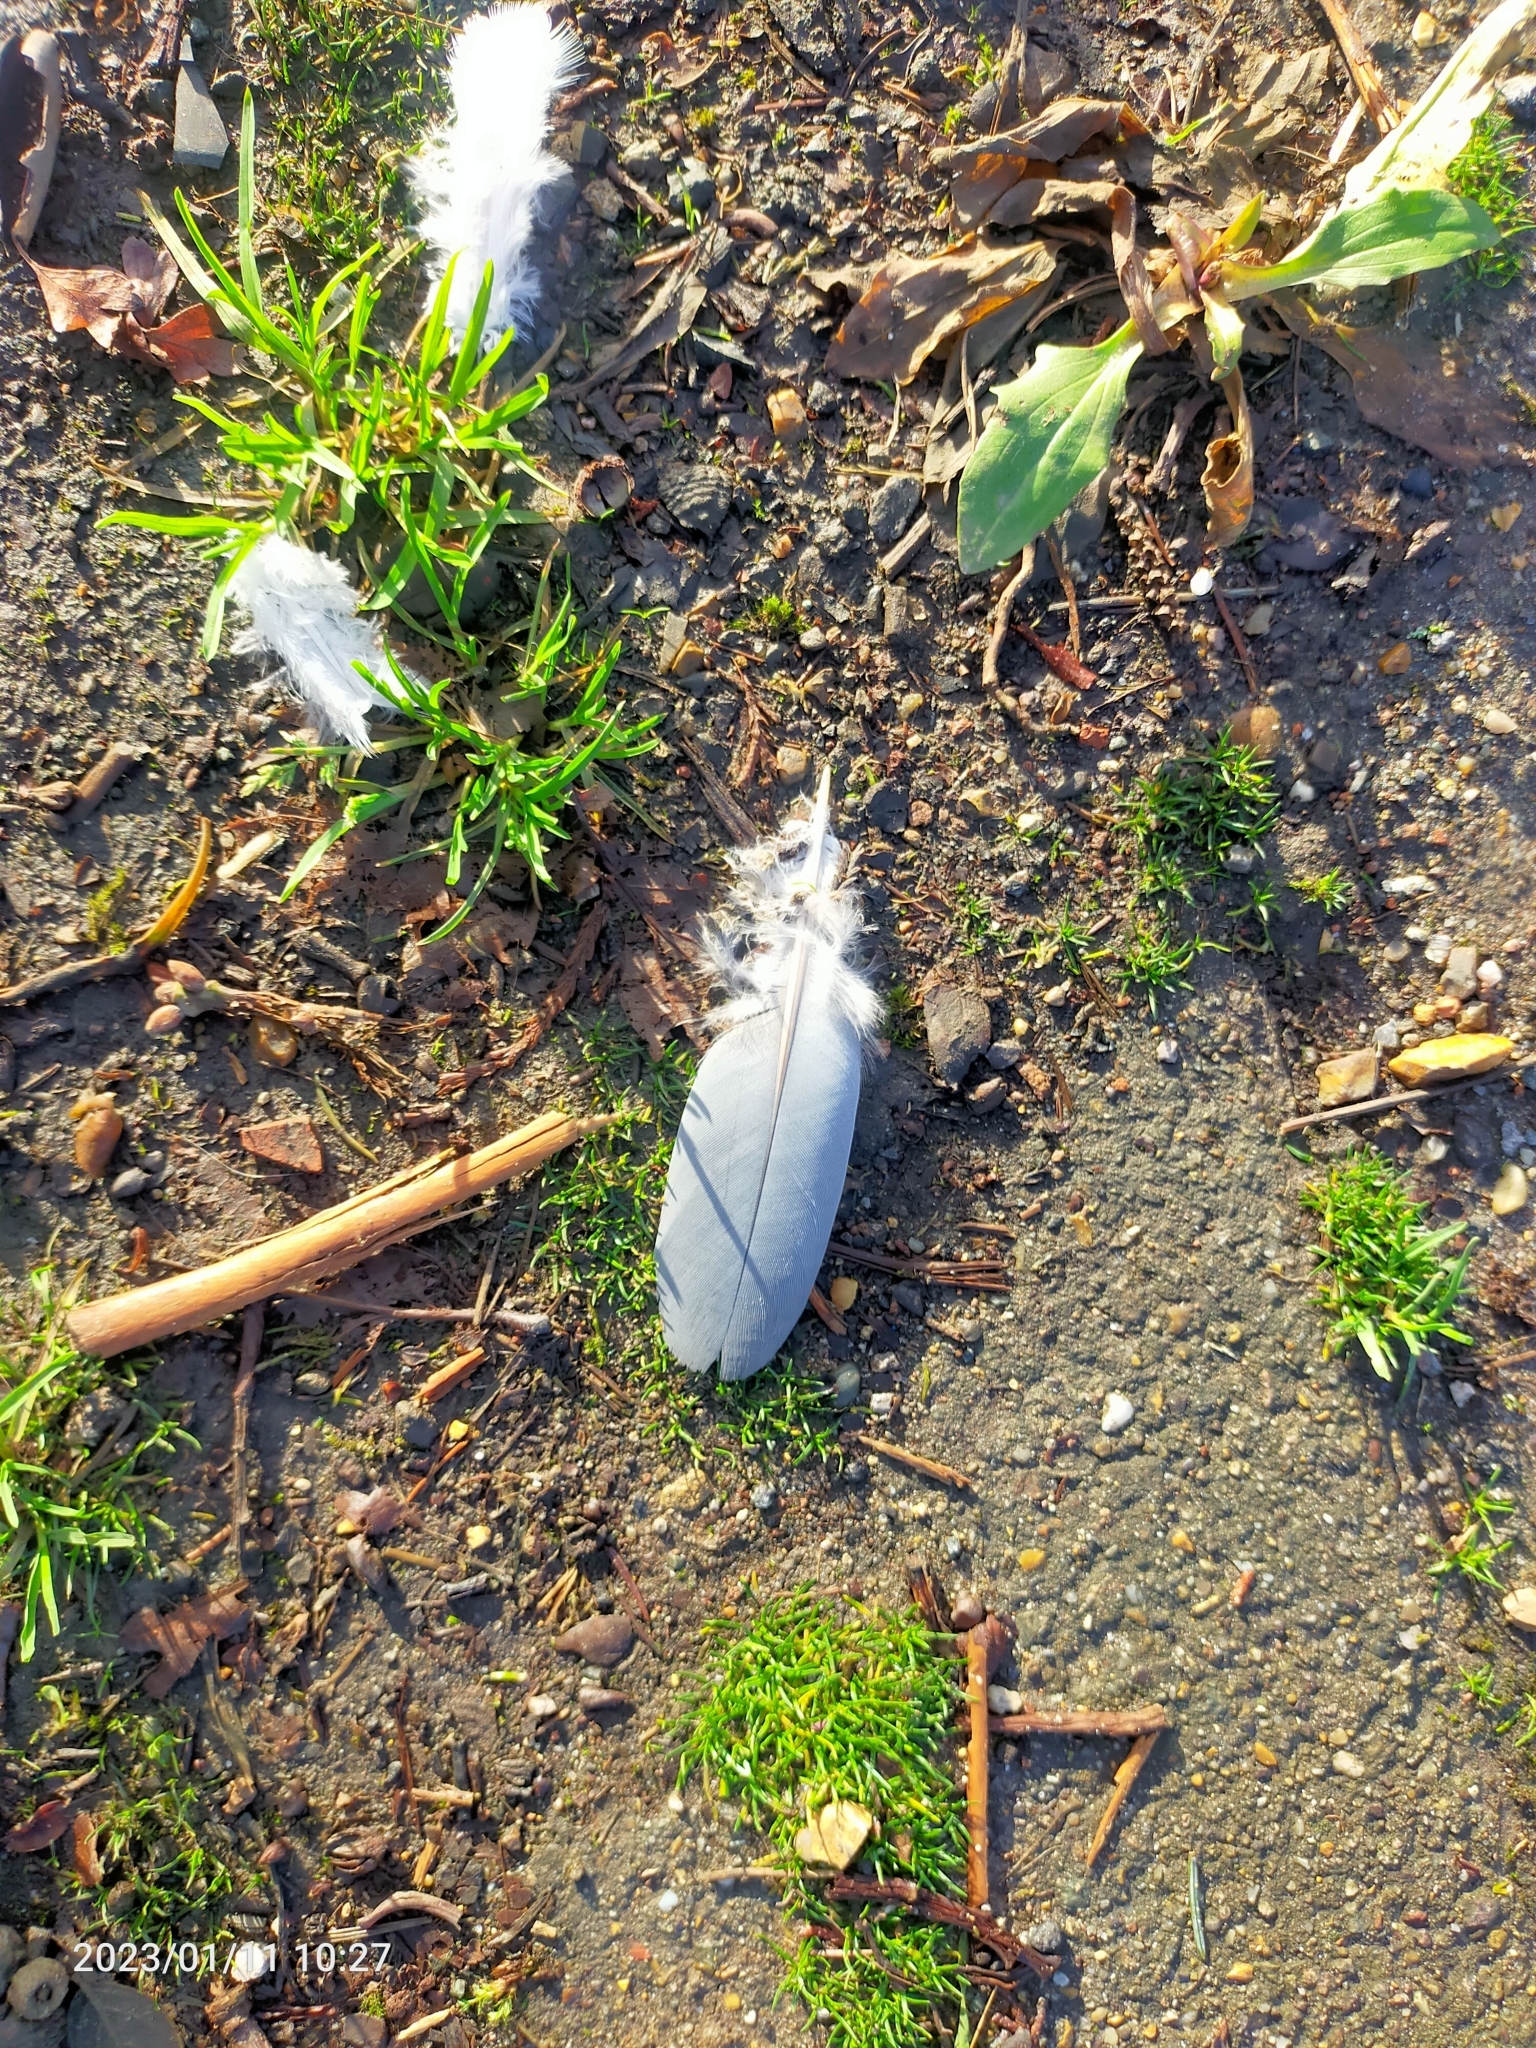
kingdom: Animalia
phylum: Chordata
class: Aves
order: Columbiformes
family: Columbidae
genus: Columba
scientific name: Columba palumbus
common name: Common wood pigeon
